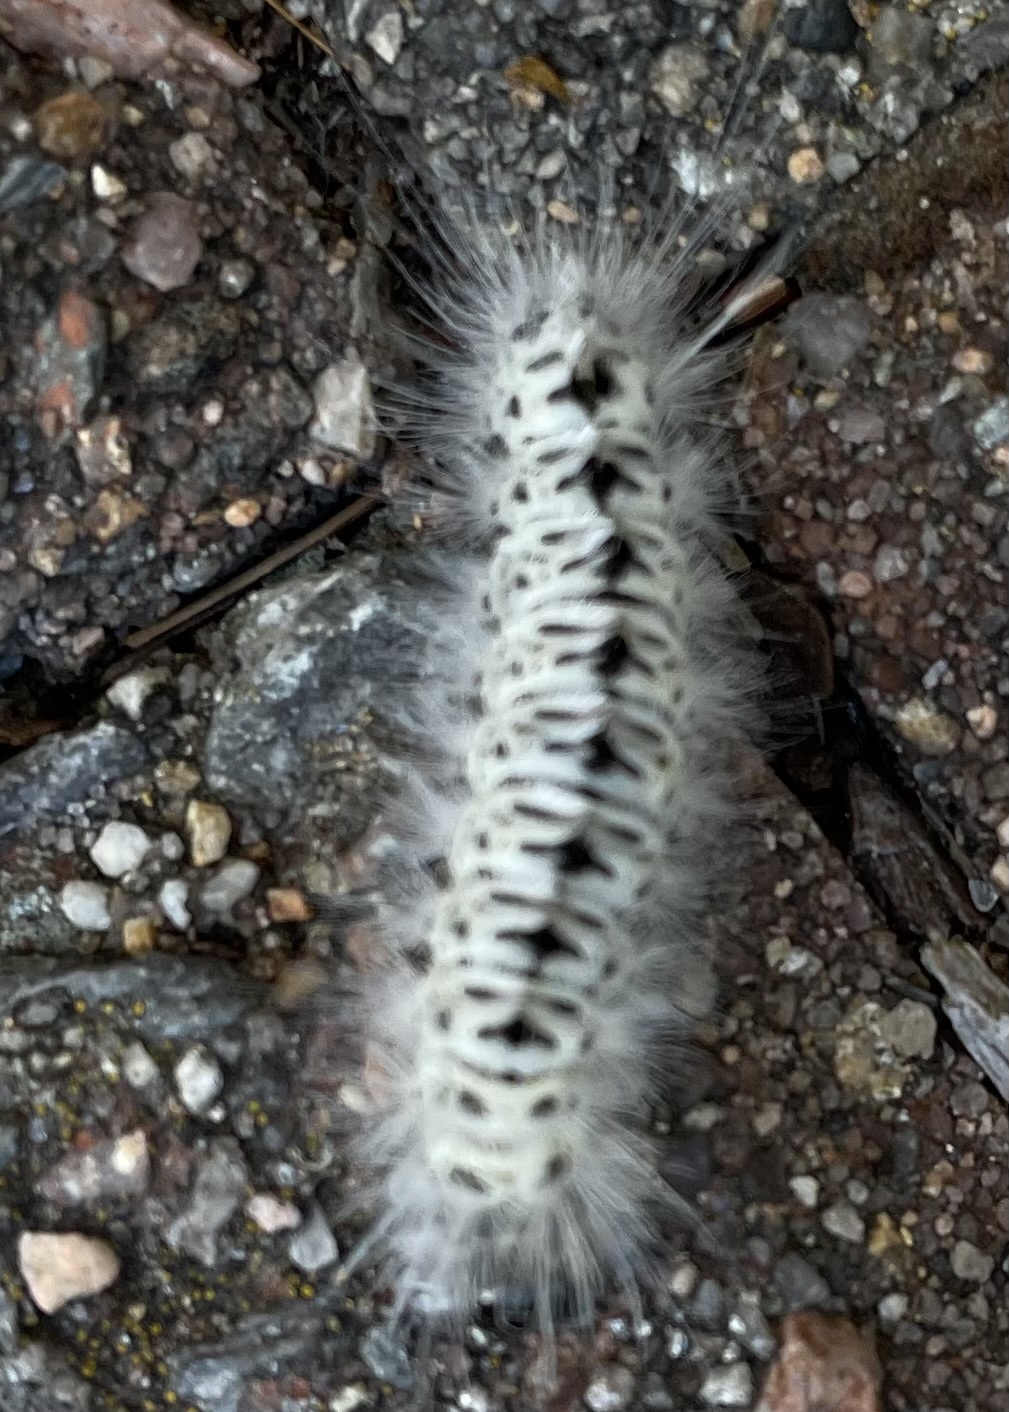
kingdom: Animalia
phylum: Arthropoda
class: Insecta
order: Lepidoptera
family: Erebidae
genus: Lophocampa
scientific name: Lophocampa caryae
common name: Hickory tussock moth
